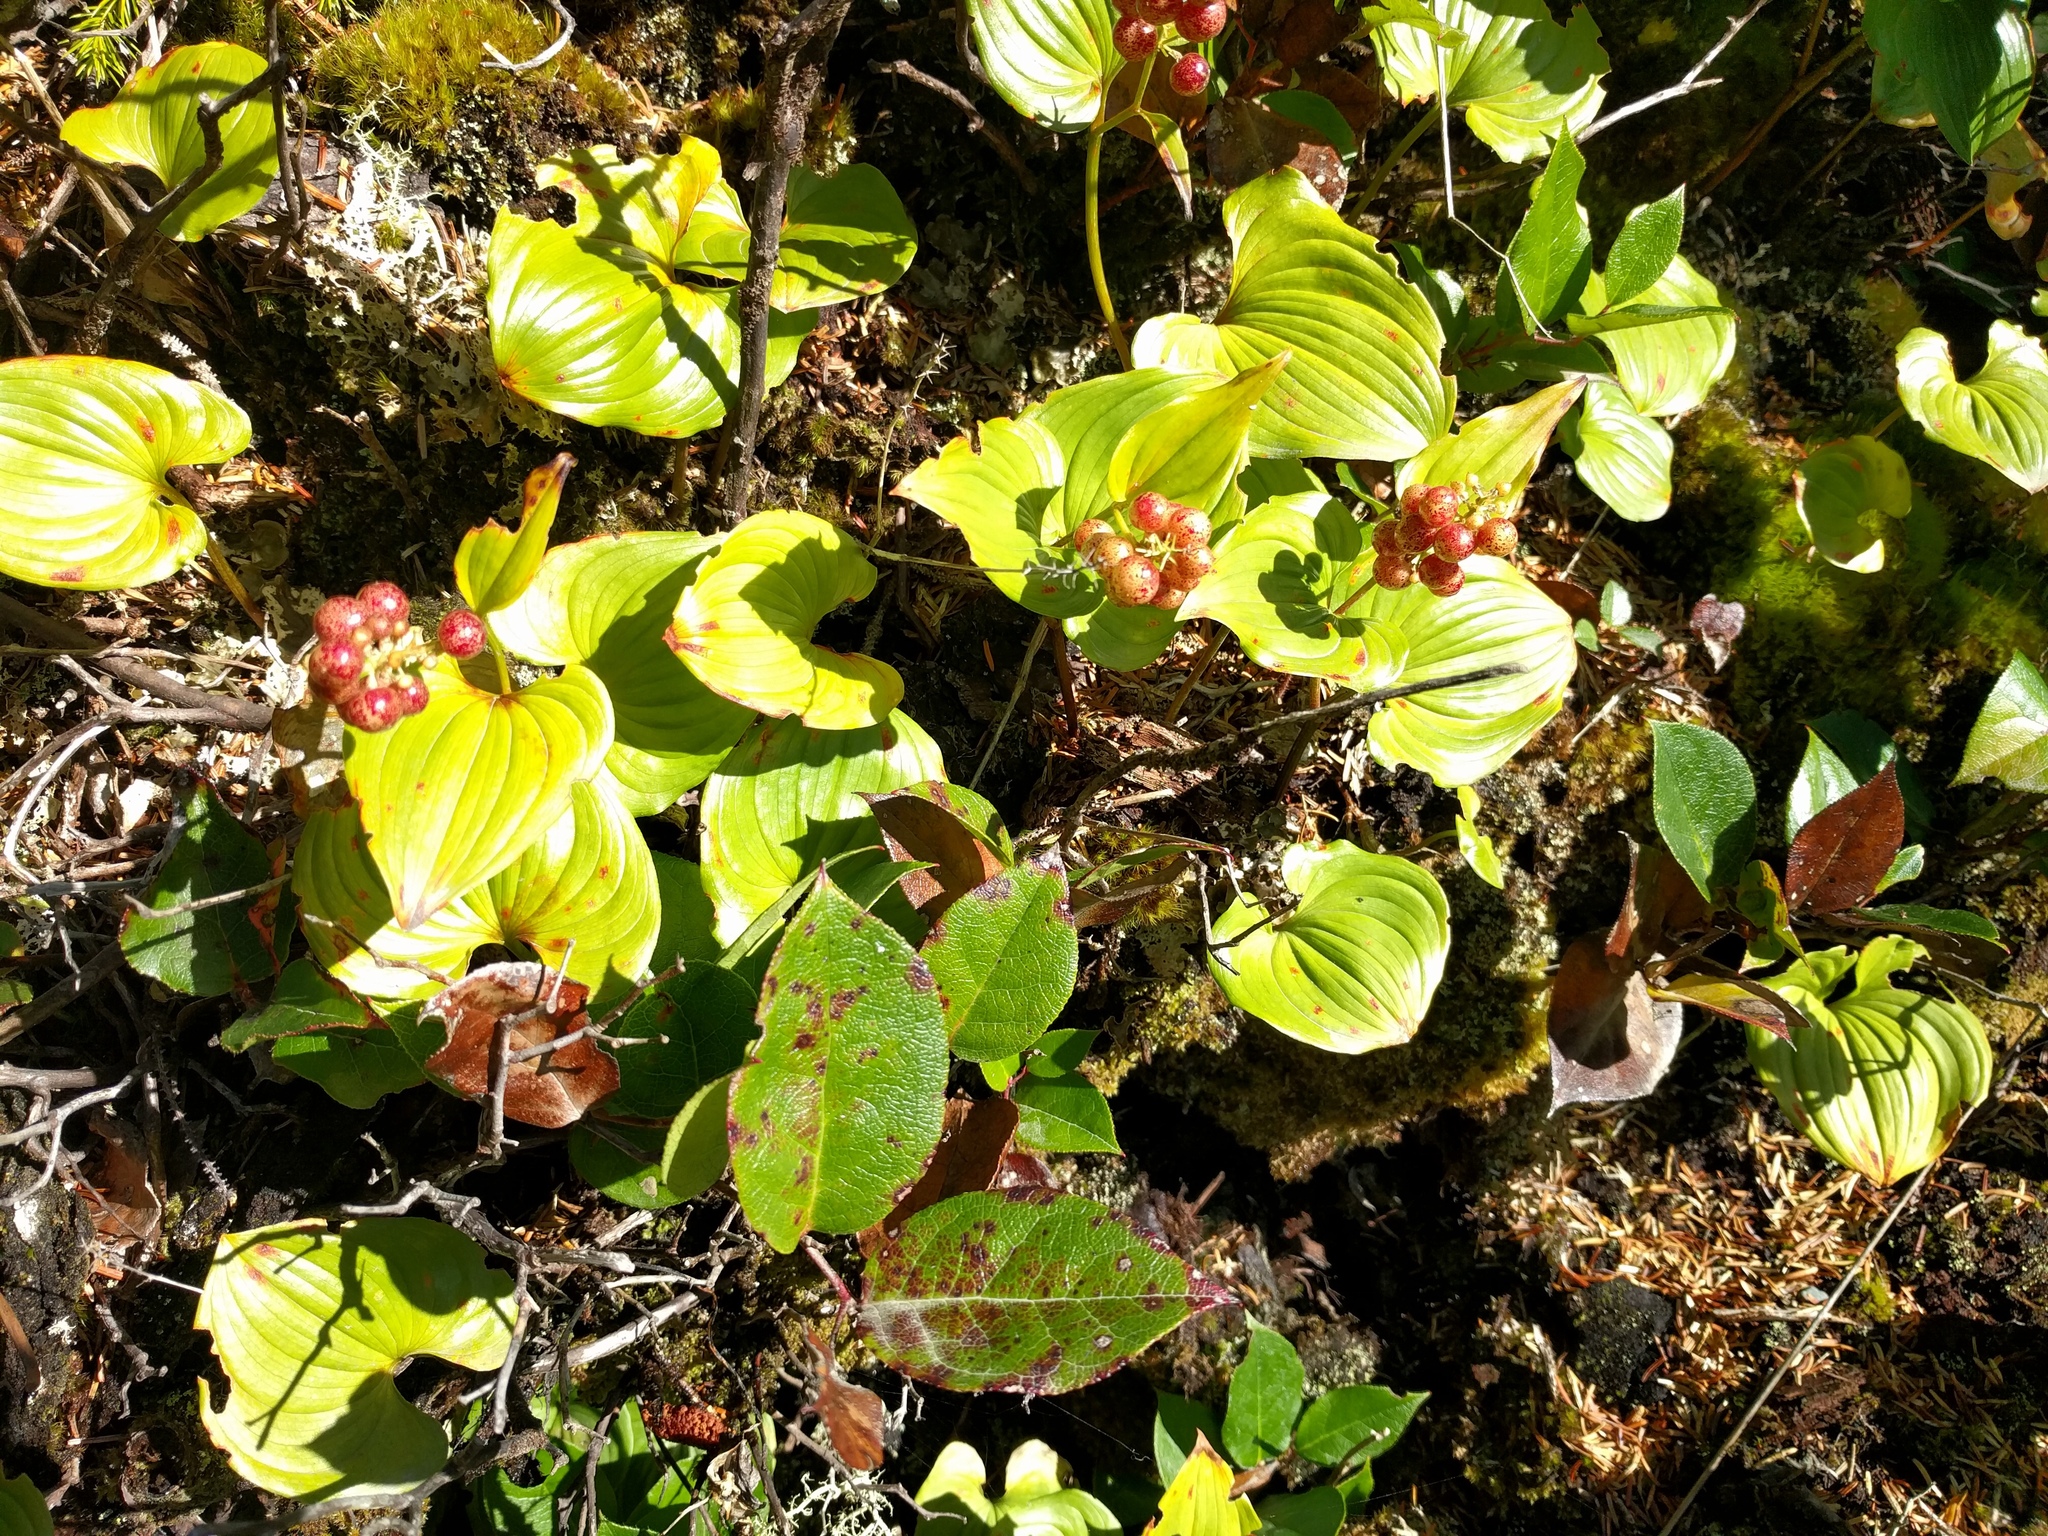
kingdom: Plantae
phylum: Tracheophyta
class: Liliopsida
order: Asparagales
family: Asparagaceae
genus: Maianthemum
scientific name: Maianthemum dilatatum
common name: False lily-of-the-valley
